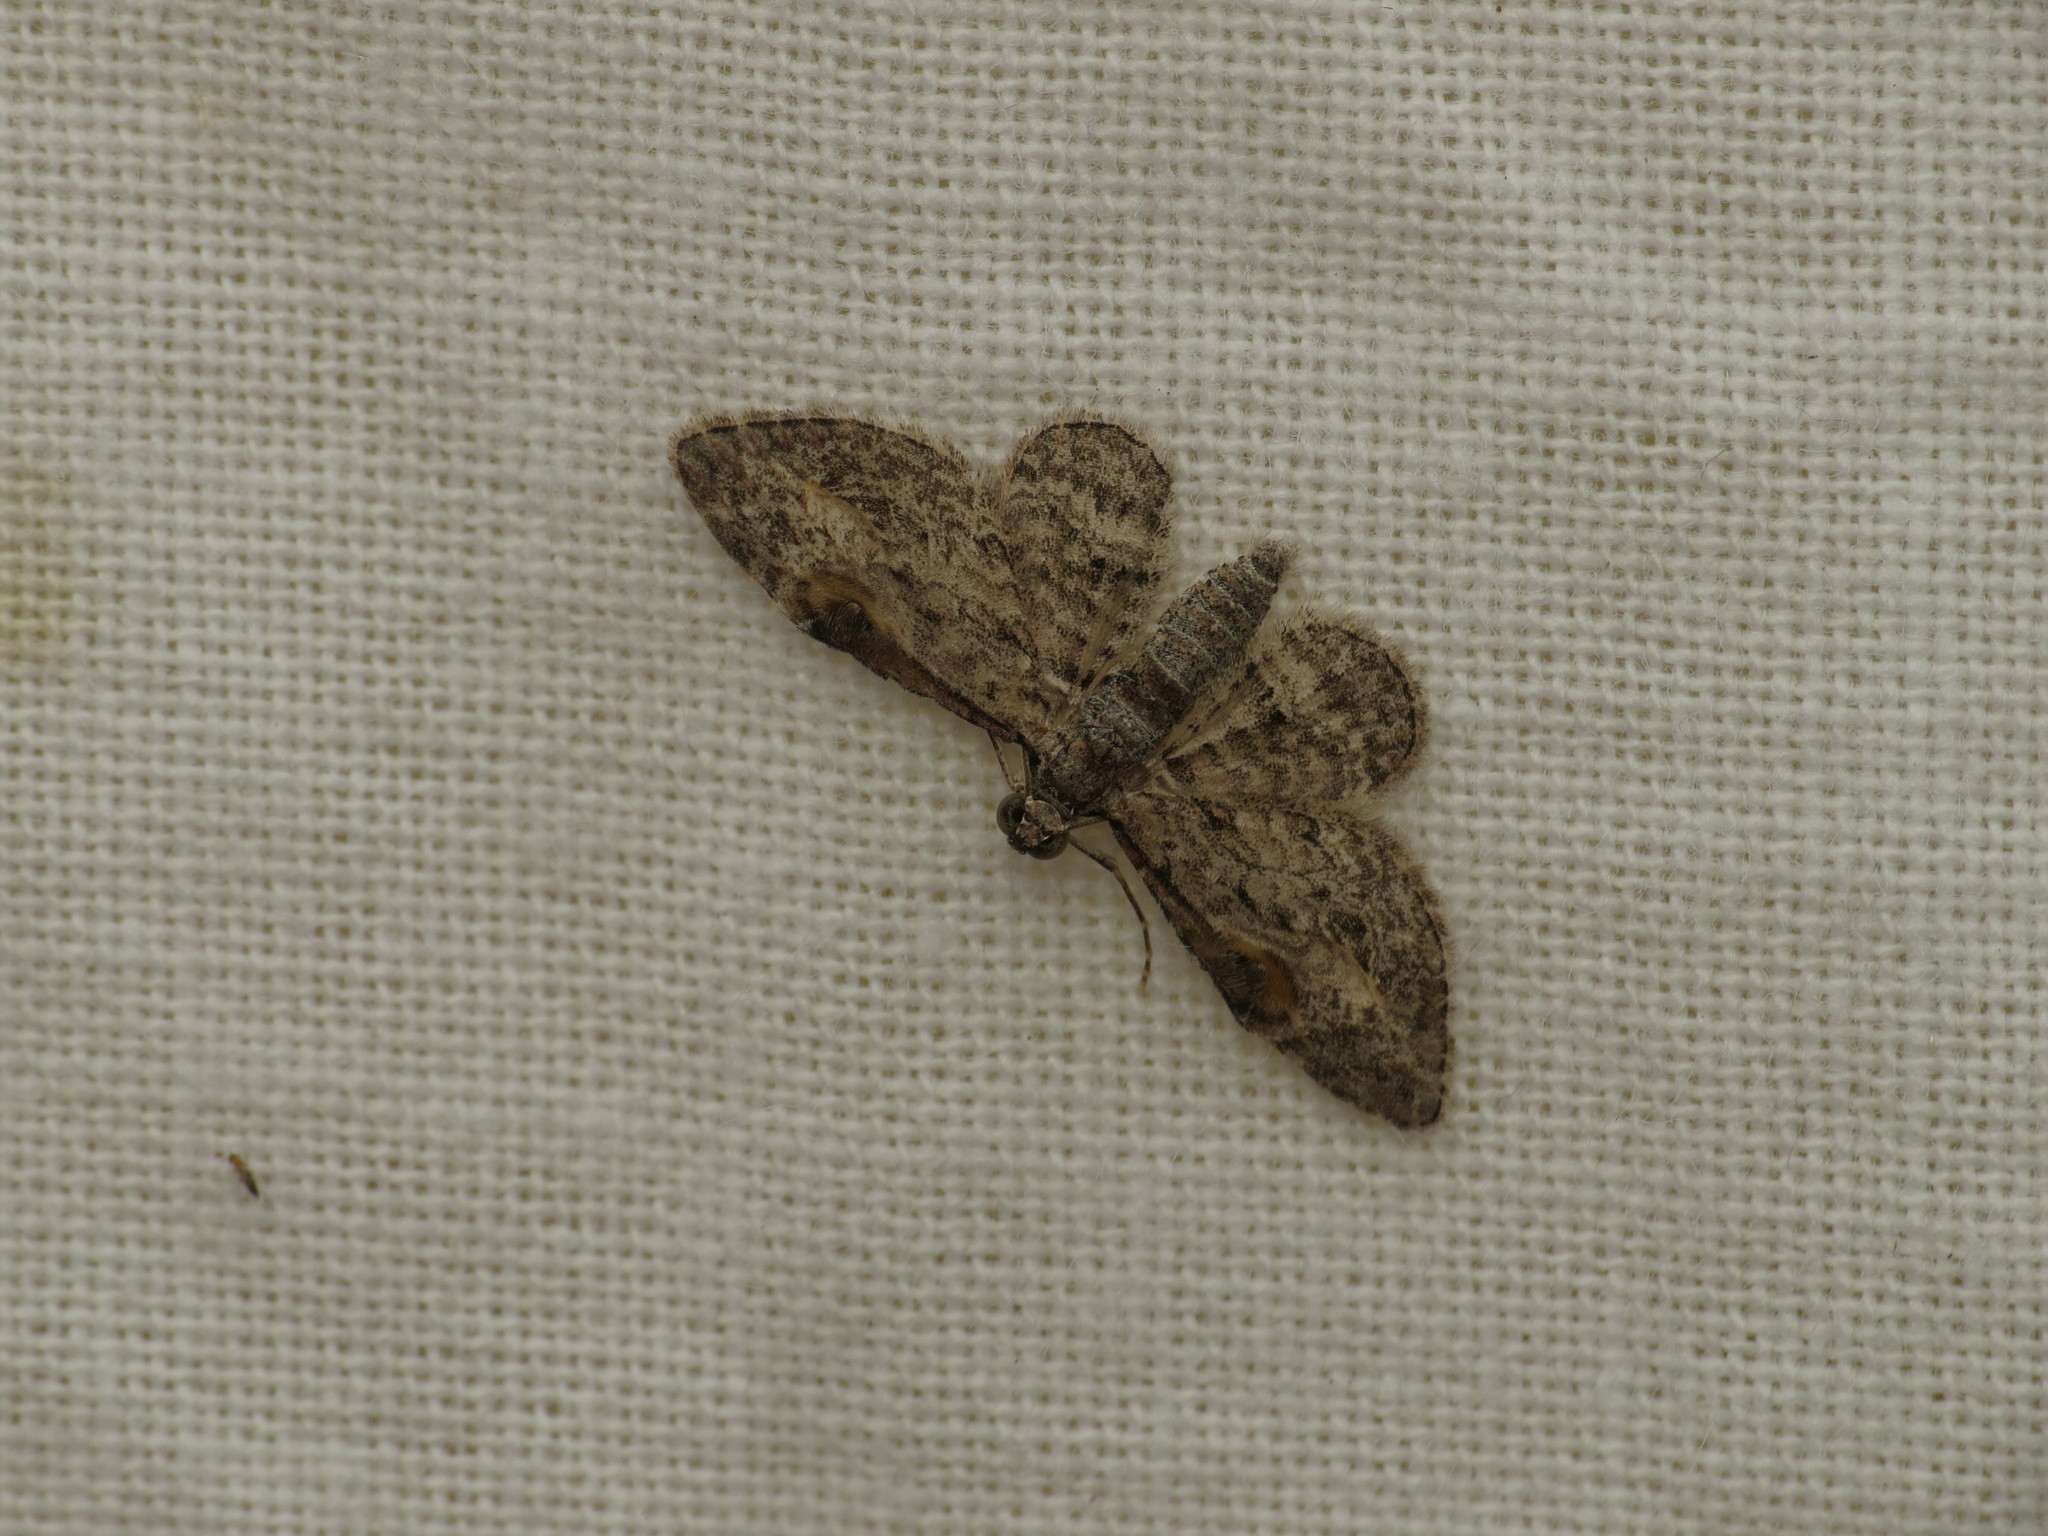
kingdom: Animalia
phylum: Arthropoda
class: Insecta
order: Lepidoptera
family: Geometridae
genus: Chloroclystis
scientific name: Chloroclystis insigillata
